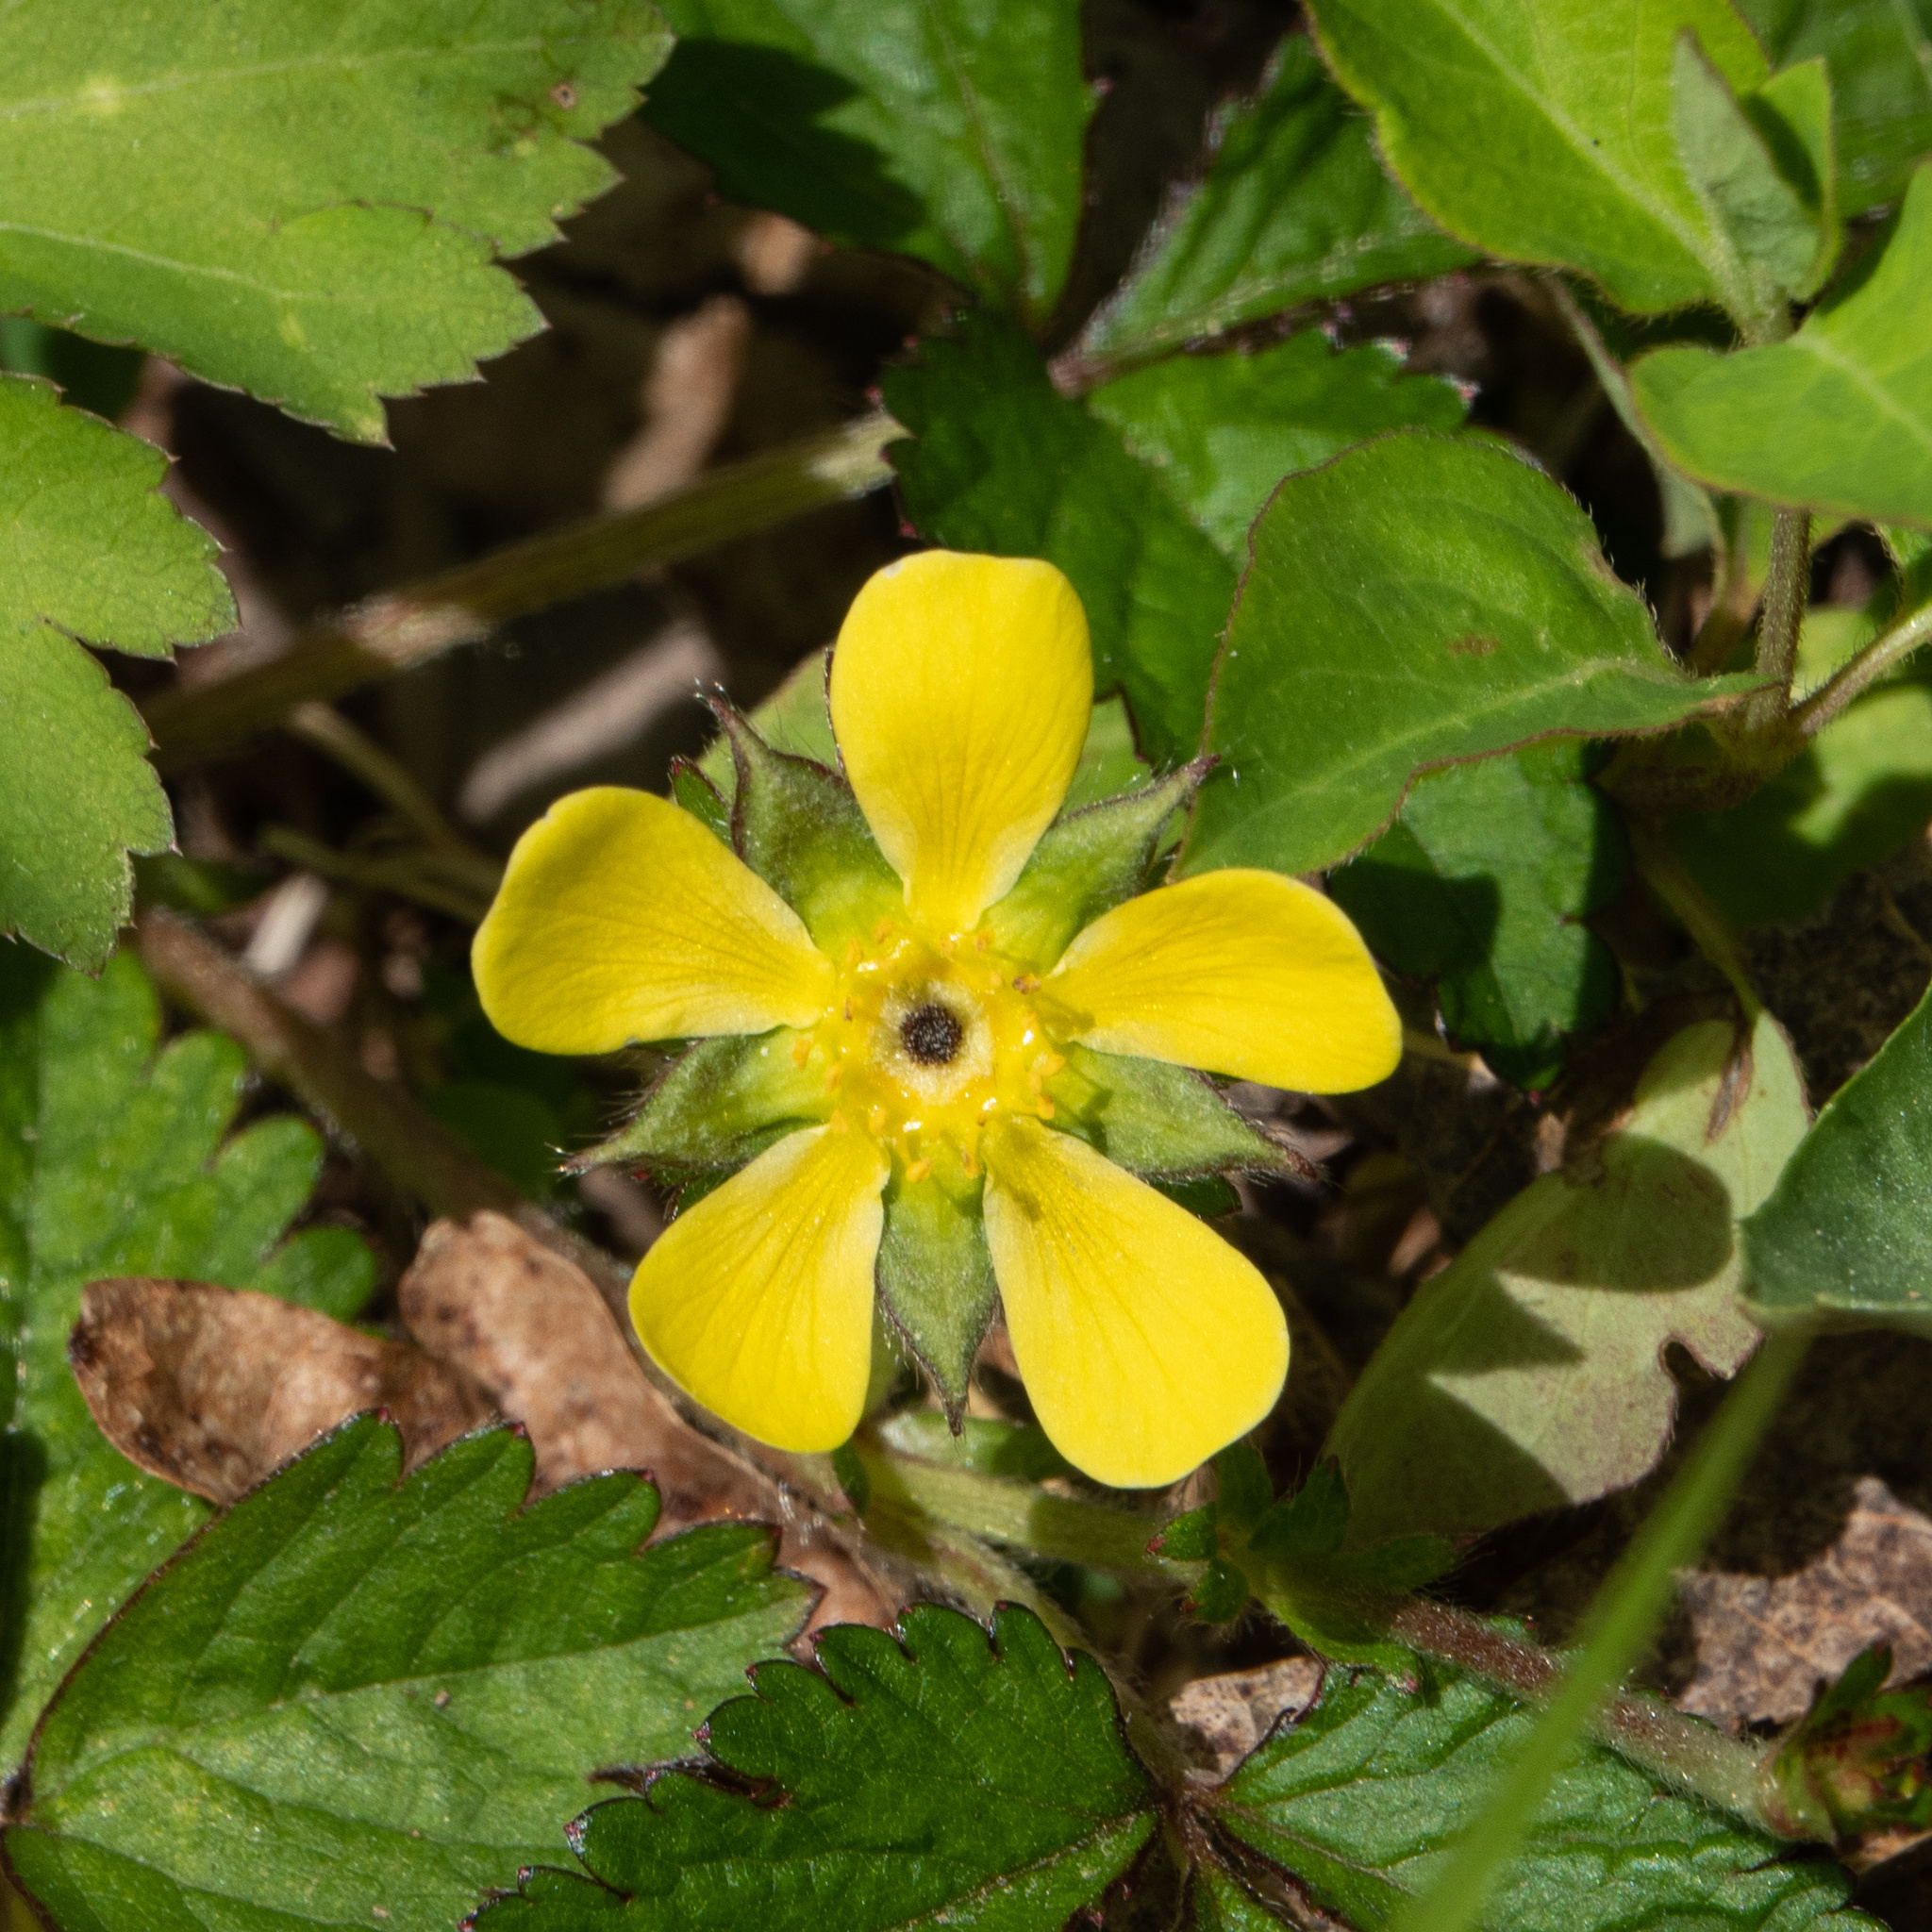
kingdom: Plantae
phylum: Tracheophyta
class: Magnoliopsida
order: Rosales
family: Rosaceae
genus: Potentilla
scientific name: Potentilla indica
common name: Yellow-flowered strawberry
